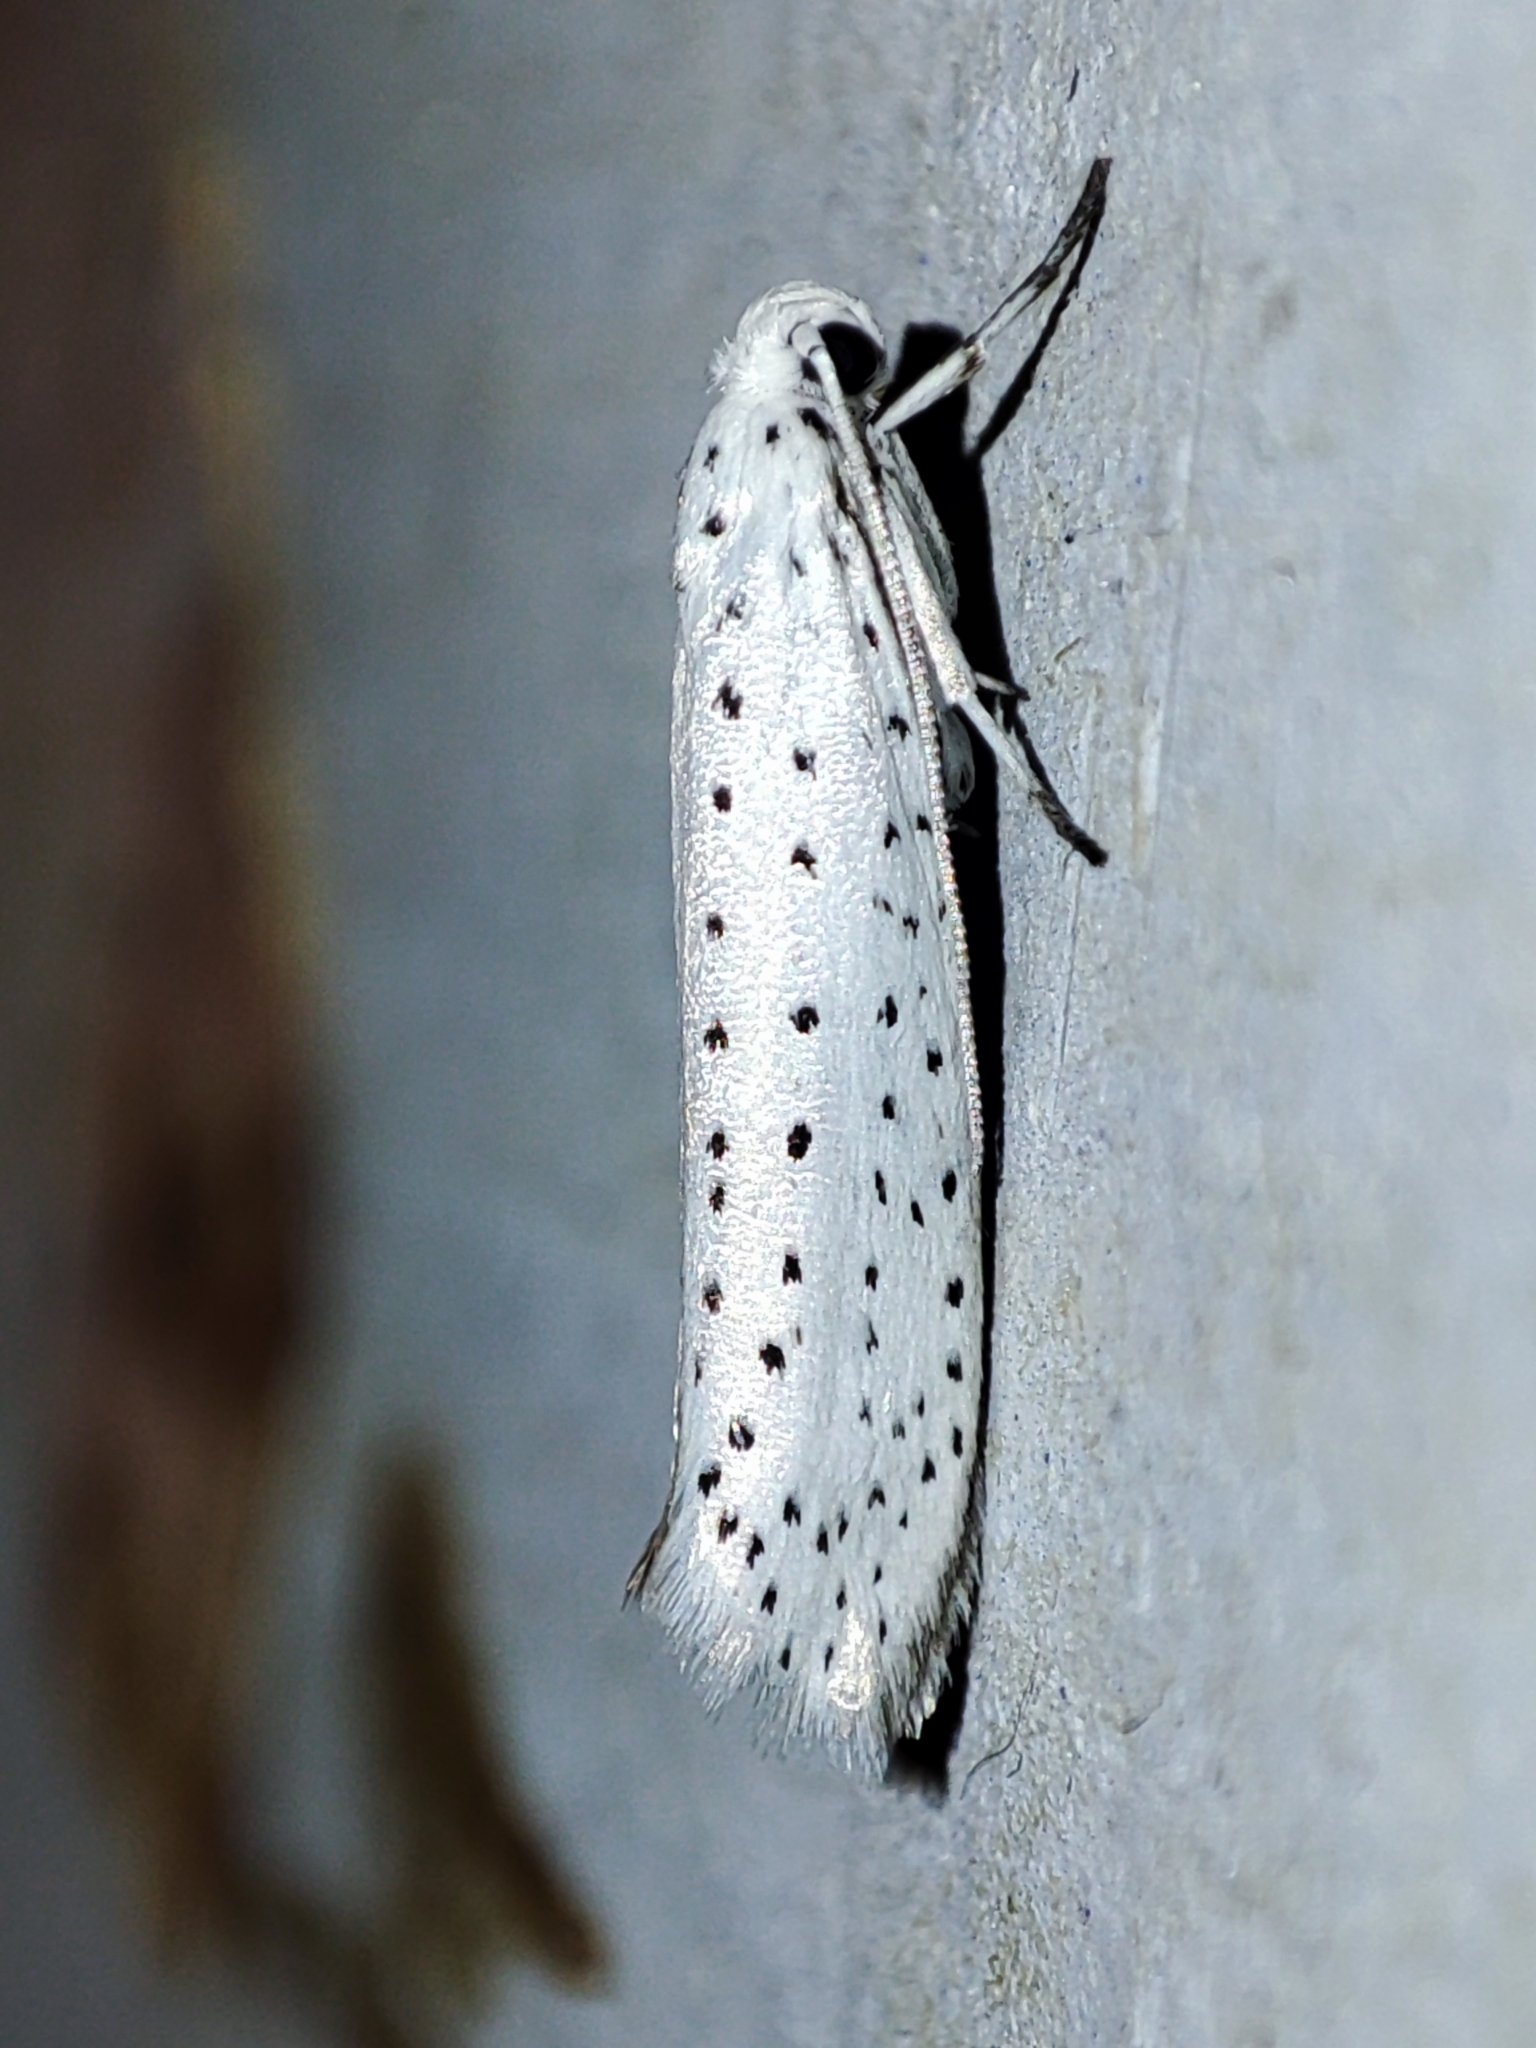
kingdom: Animalia
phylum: Arthropoda
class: Insecta
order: Lepidoptera
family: Yponomeutidae
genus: Yponomeuta
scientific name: Yponomeuta evonymella
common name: Bird-cherry ermine
